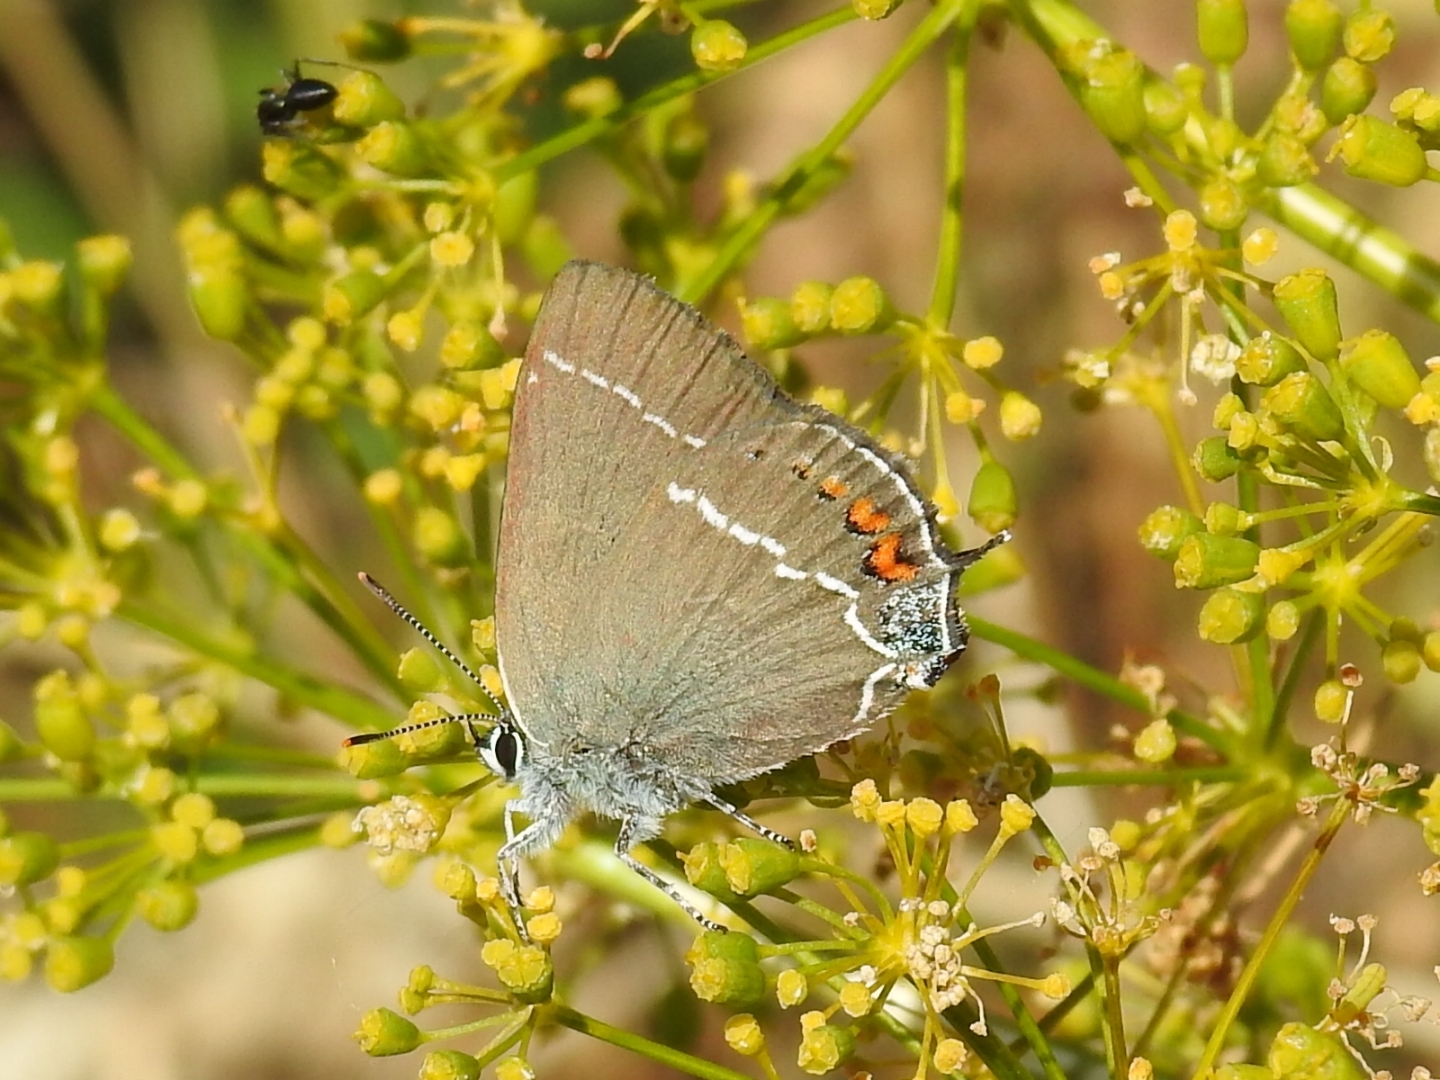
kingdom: Animalia
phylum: Arthropoda
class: Insecta
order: Lepidoptera
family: Lycaenidae
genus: Tuttiola
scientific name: Tuttiola spini
